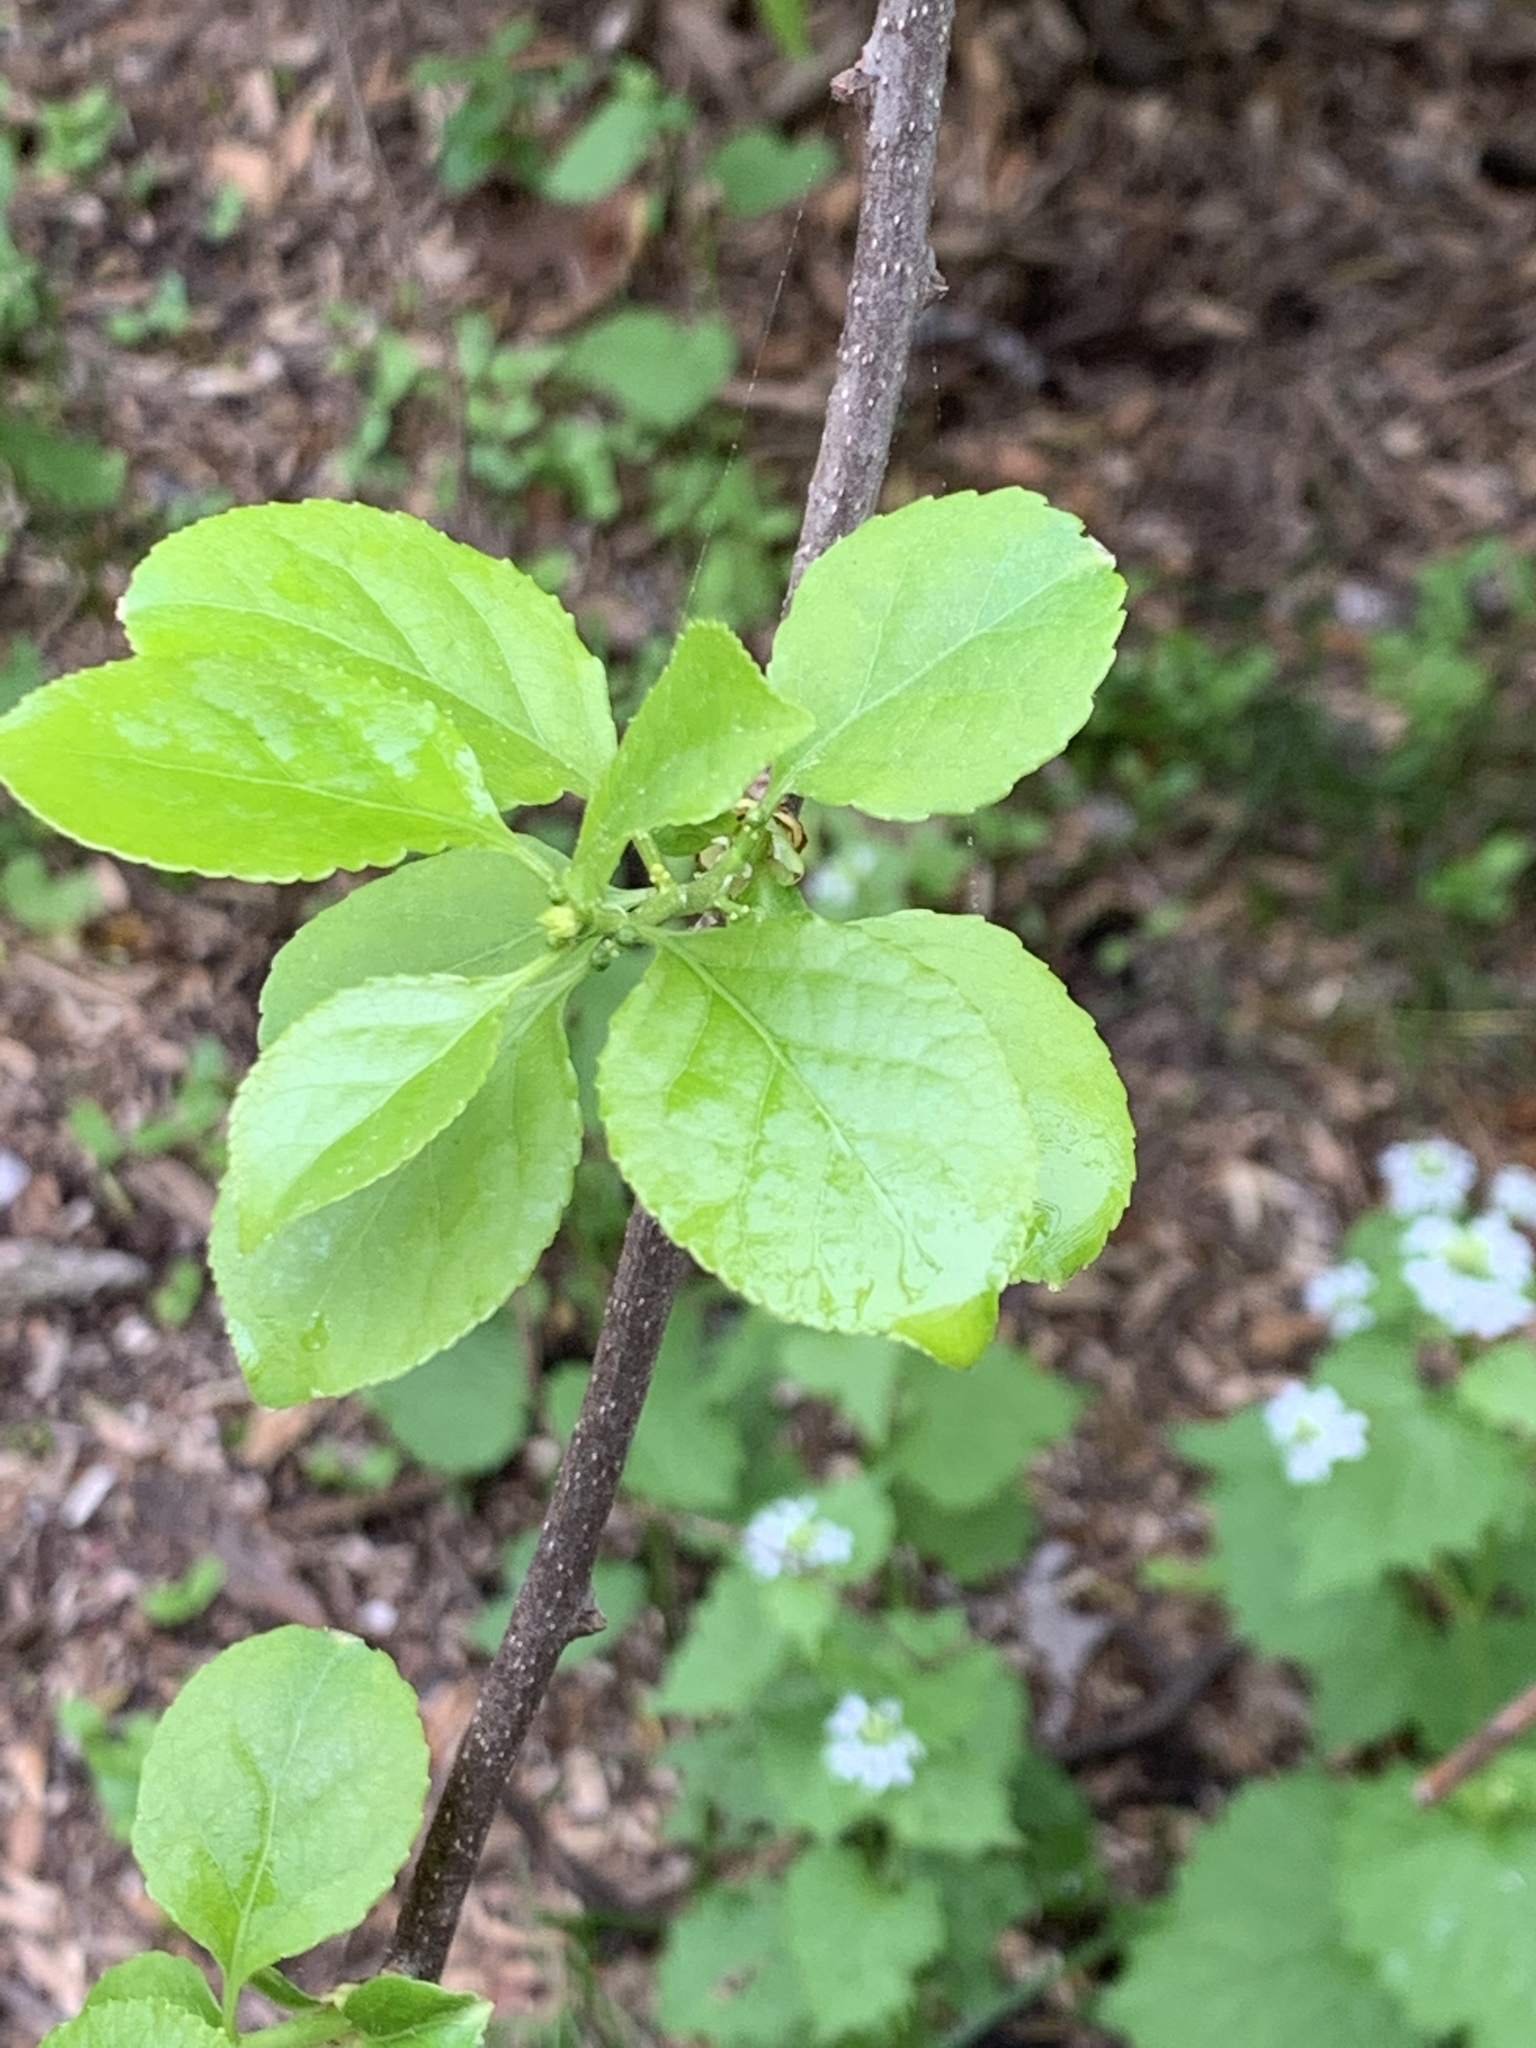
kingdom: Plantae
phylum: Tracheophyta
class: Magnoliopsida
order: Celastrales
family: Celastraceae
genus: Celastrus
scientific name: Celastrus orbiculatus
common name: Oriental bittersweet
